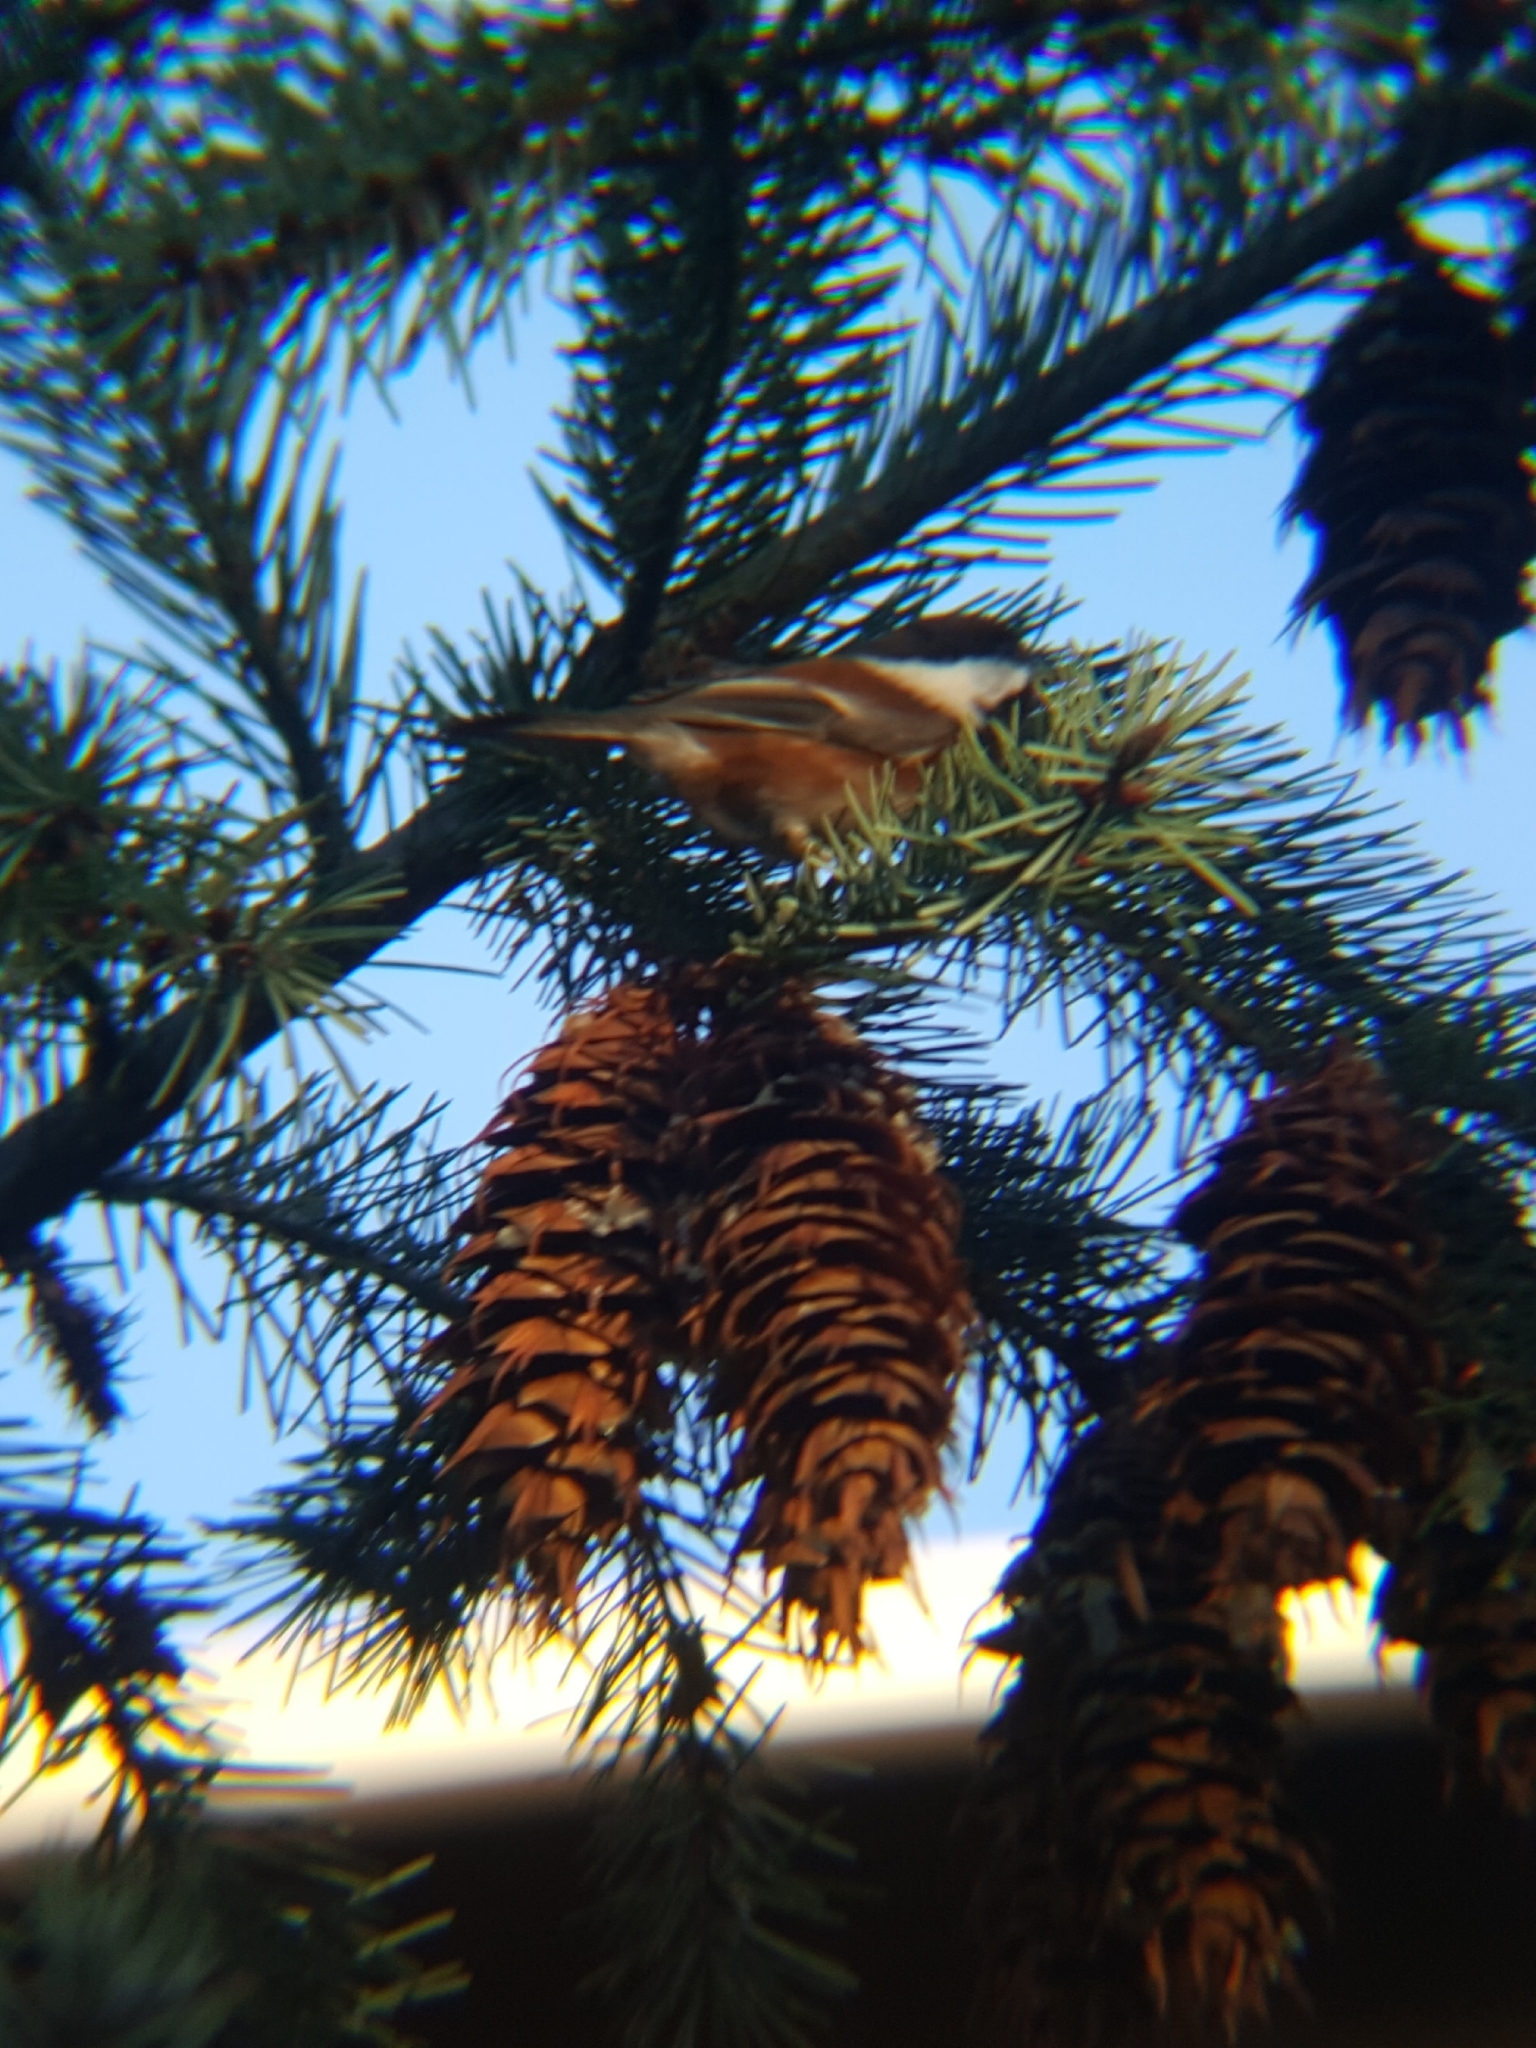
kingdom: Animalia
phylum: Chordata
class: Aves
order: Passeriformes
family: Paridae
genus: Poecile
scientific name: Poecile rufescens
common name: Chestnut-backed chickadee
